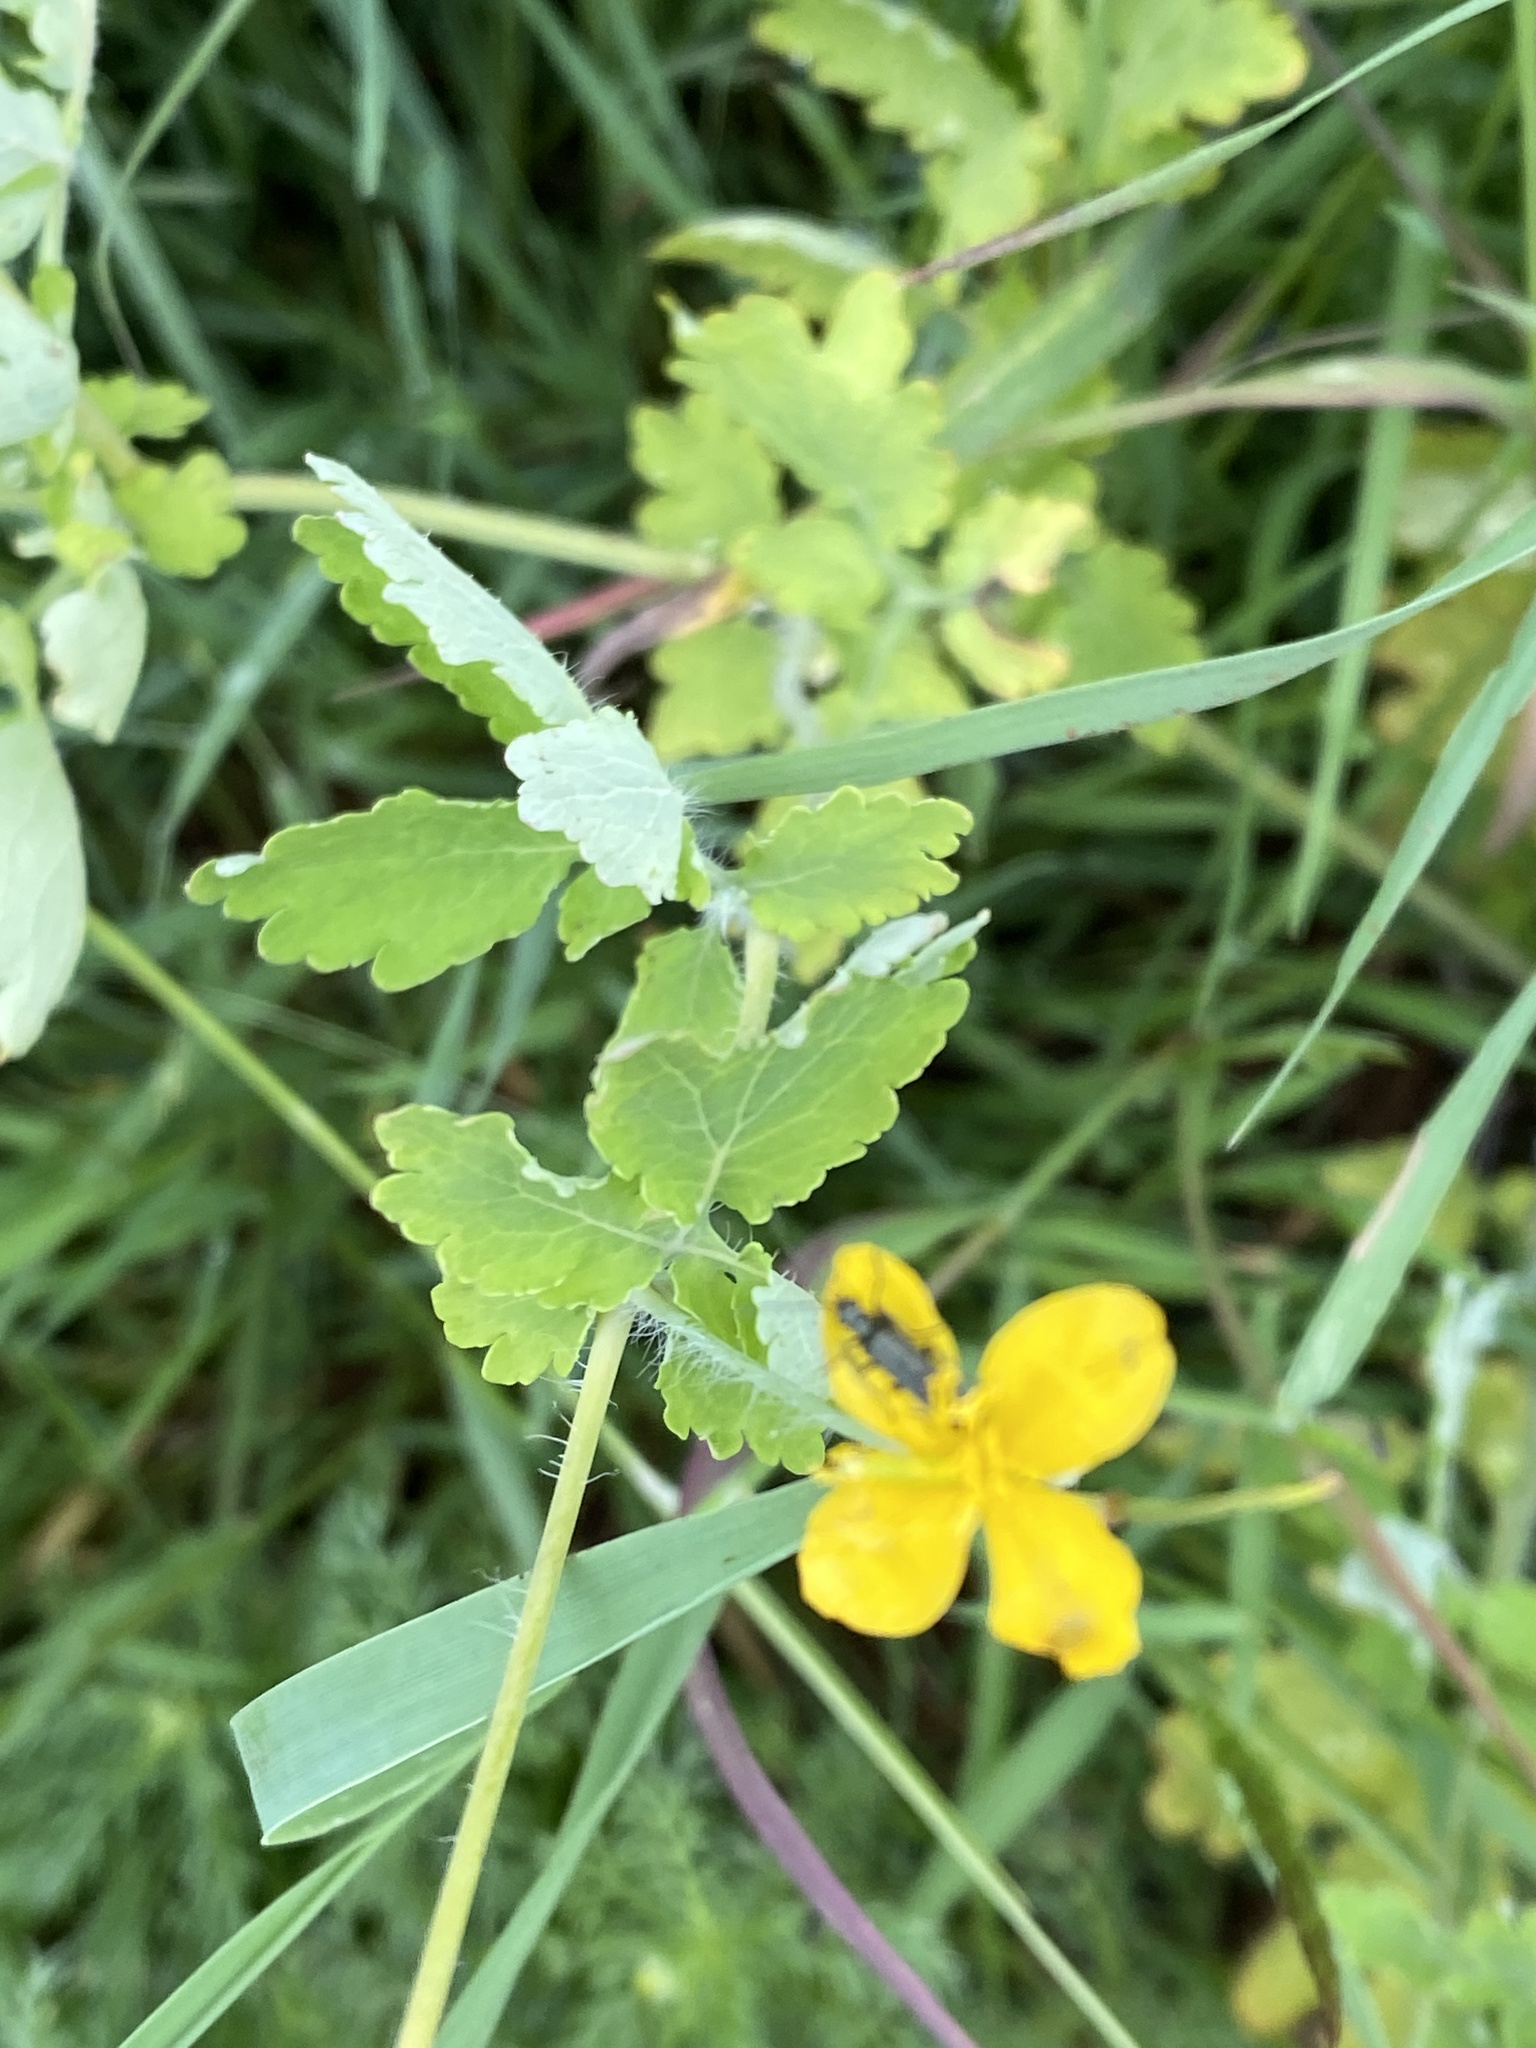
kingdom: Plantae
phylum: Tracheophyta
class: Magnoliopsida
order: Ranunculales
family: Papaveraceae
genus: Chelidonium
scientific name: Chelidonium majus
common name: Greater celandine
